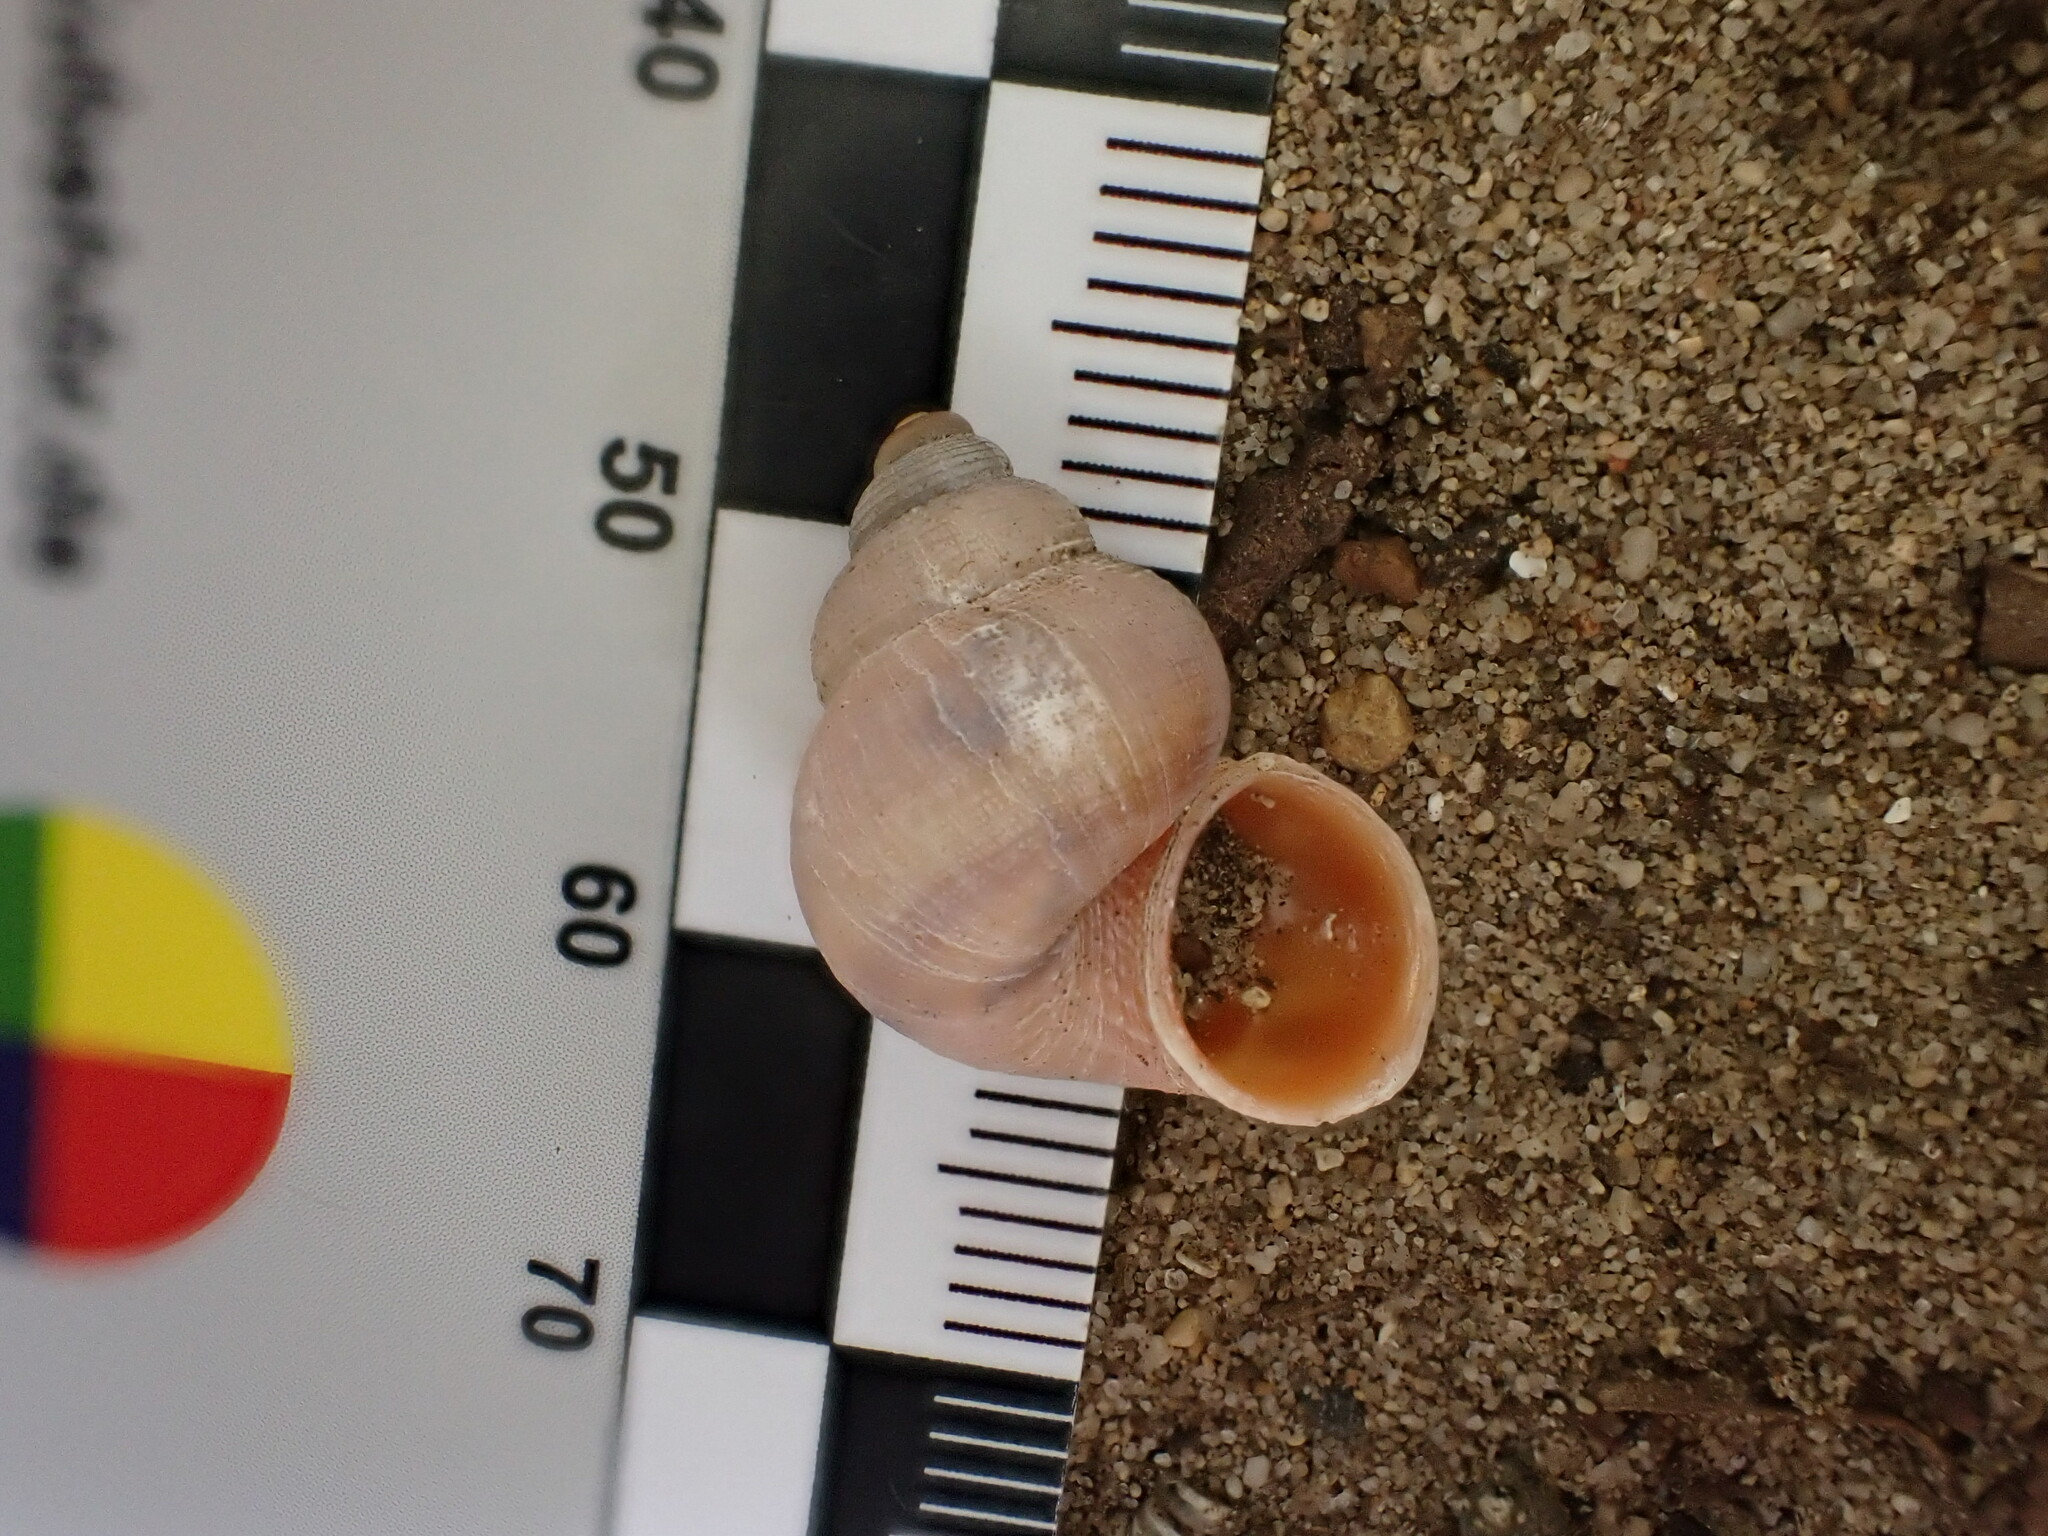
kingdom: Animalia
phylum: Mollusca
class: Gastropoda
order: Littorinimorpha
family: Pomatiidae
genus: Tudorella
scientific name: Tudorella sulcata
